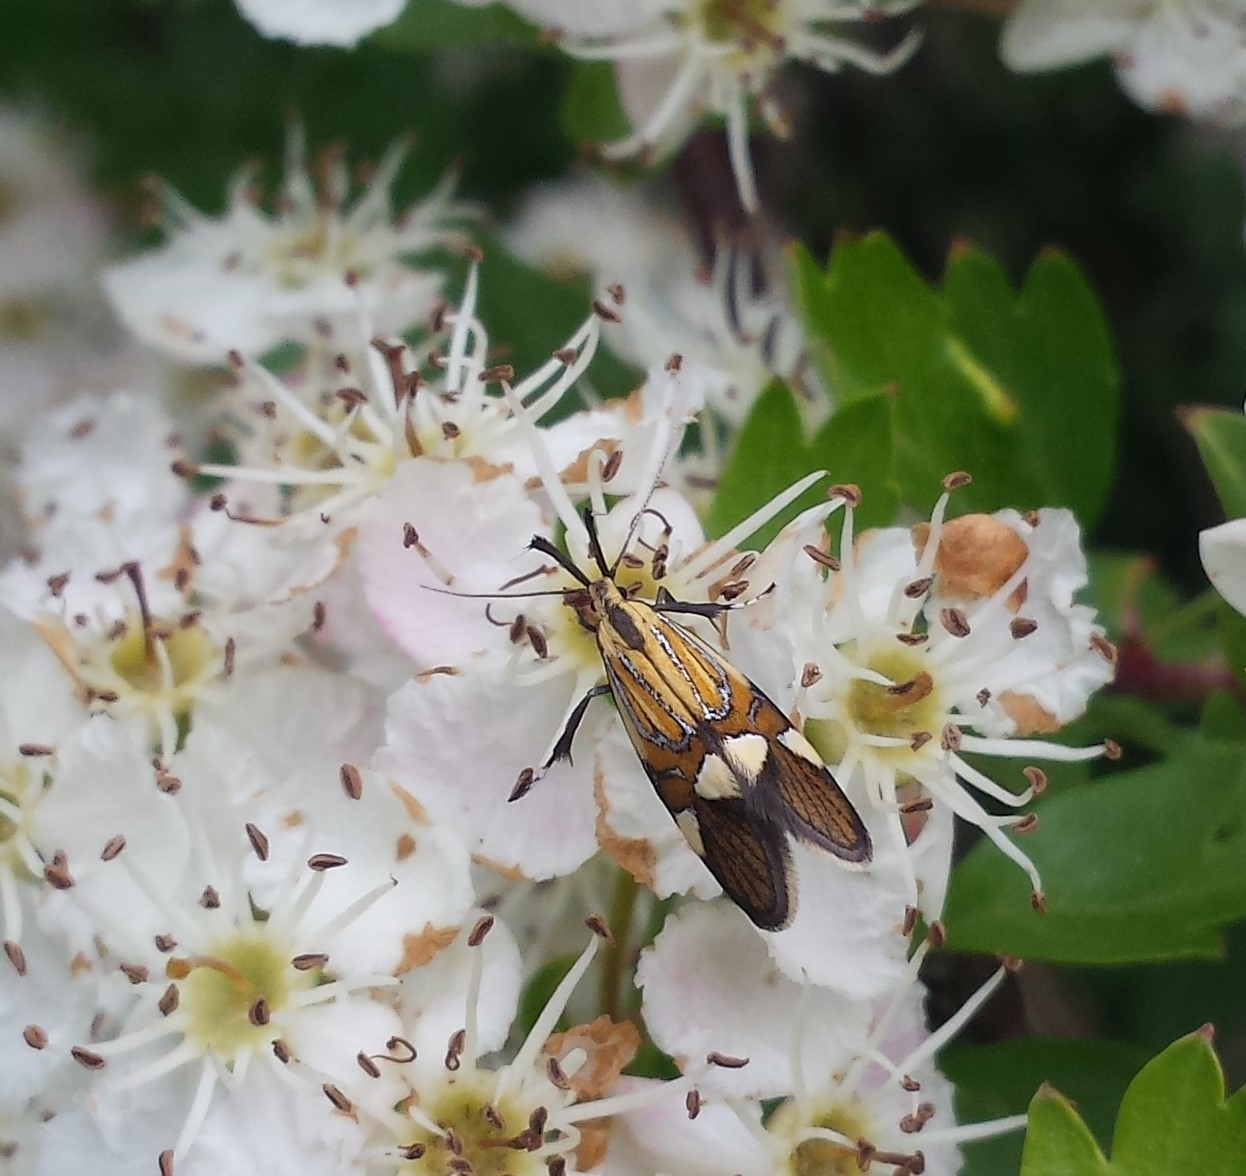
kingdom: Animalia
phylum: Arthropoda
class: Insecta
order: Lepidoptera
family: Oecophoridae
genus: Oecophora
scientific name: Oecophora Alabonia geoffrella
